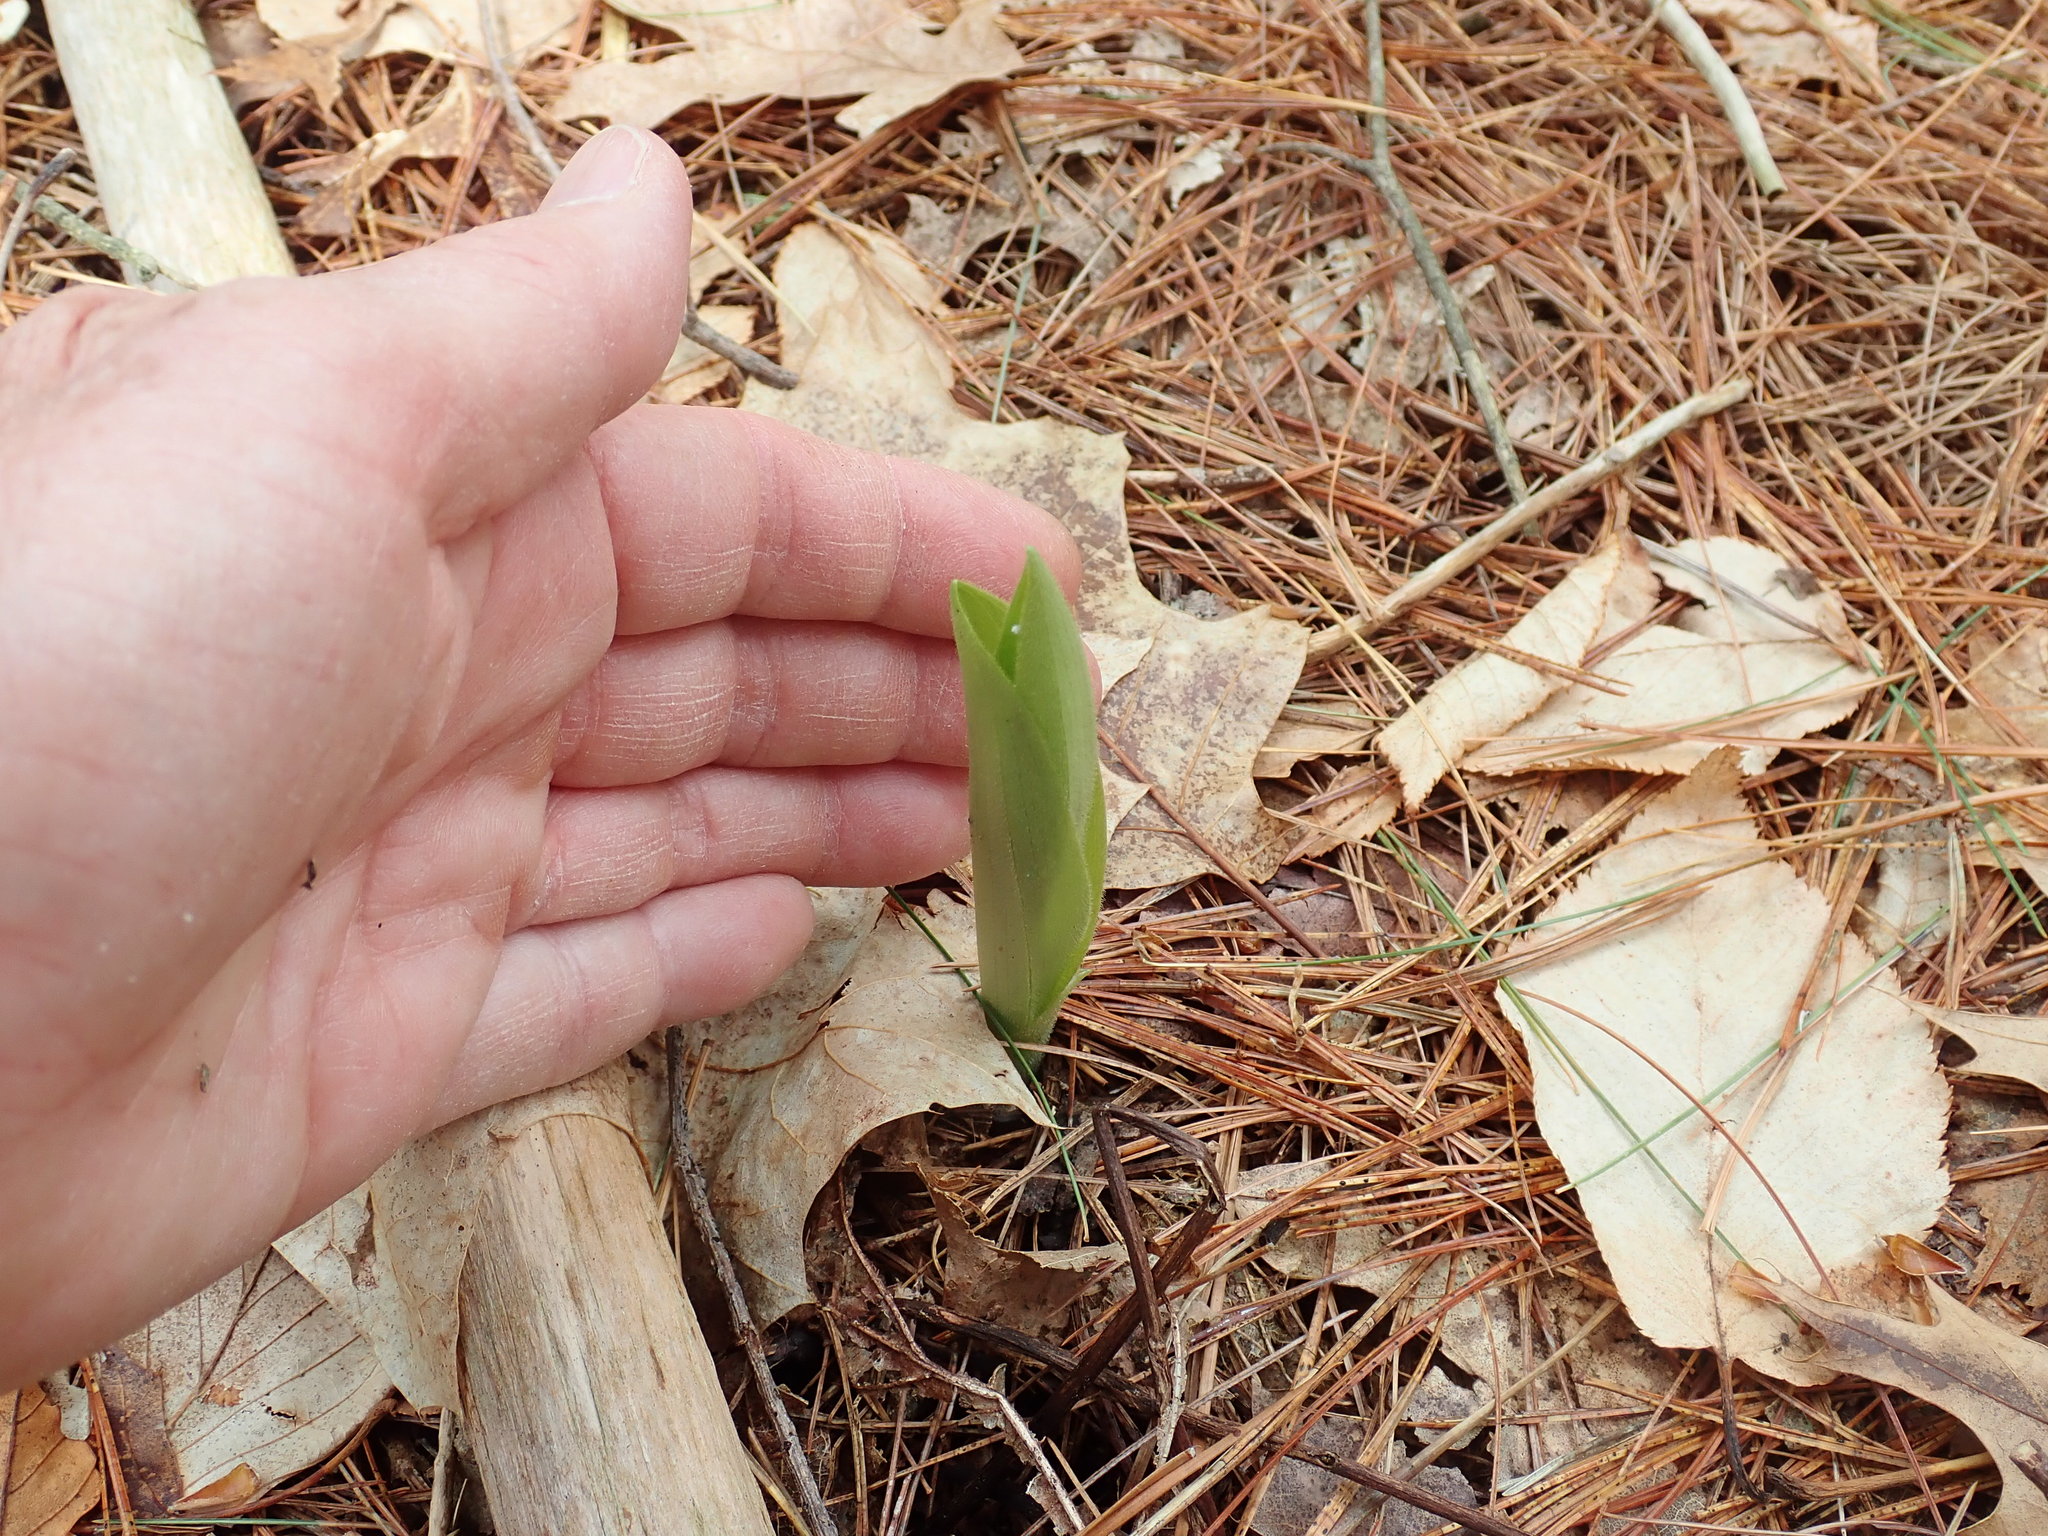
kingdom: Plantae
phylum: Tracheophyta
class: Liliopsida
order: Asparagales
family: Orchidaceae
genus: Cypripedium
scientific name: Cypripedium acaule
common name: Pink lady's-slipper
